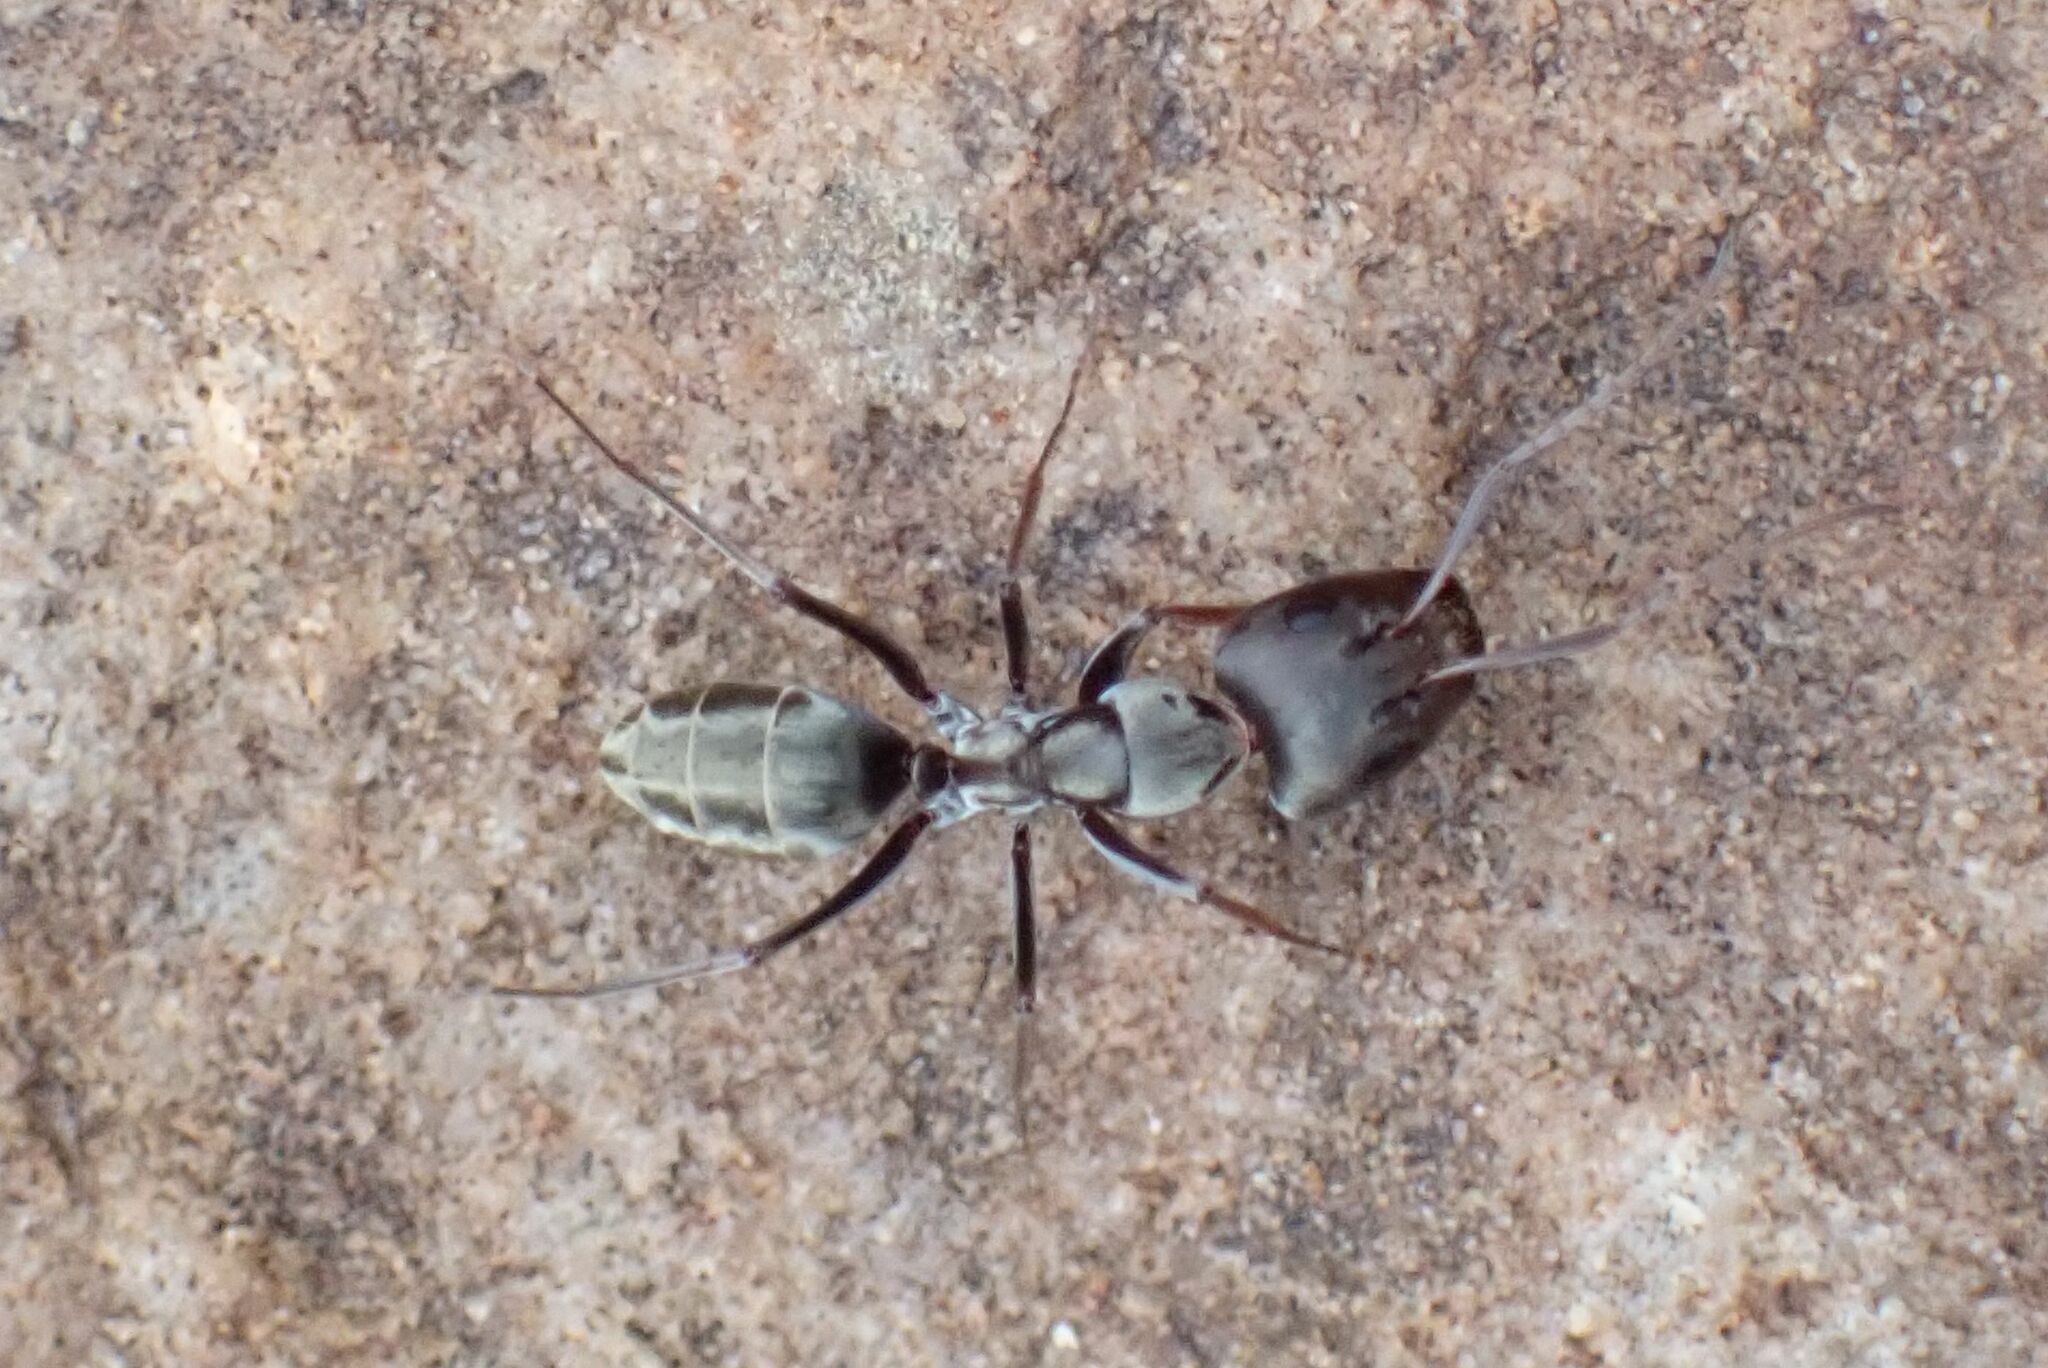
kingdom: Animalia
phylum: Arthropoda
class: Insecta
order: Hymenoptera
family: Formicidae
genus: Camponotus
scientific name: Camponotus vestitus
